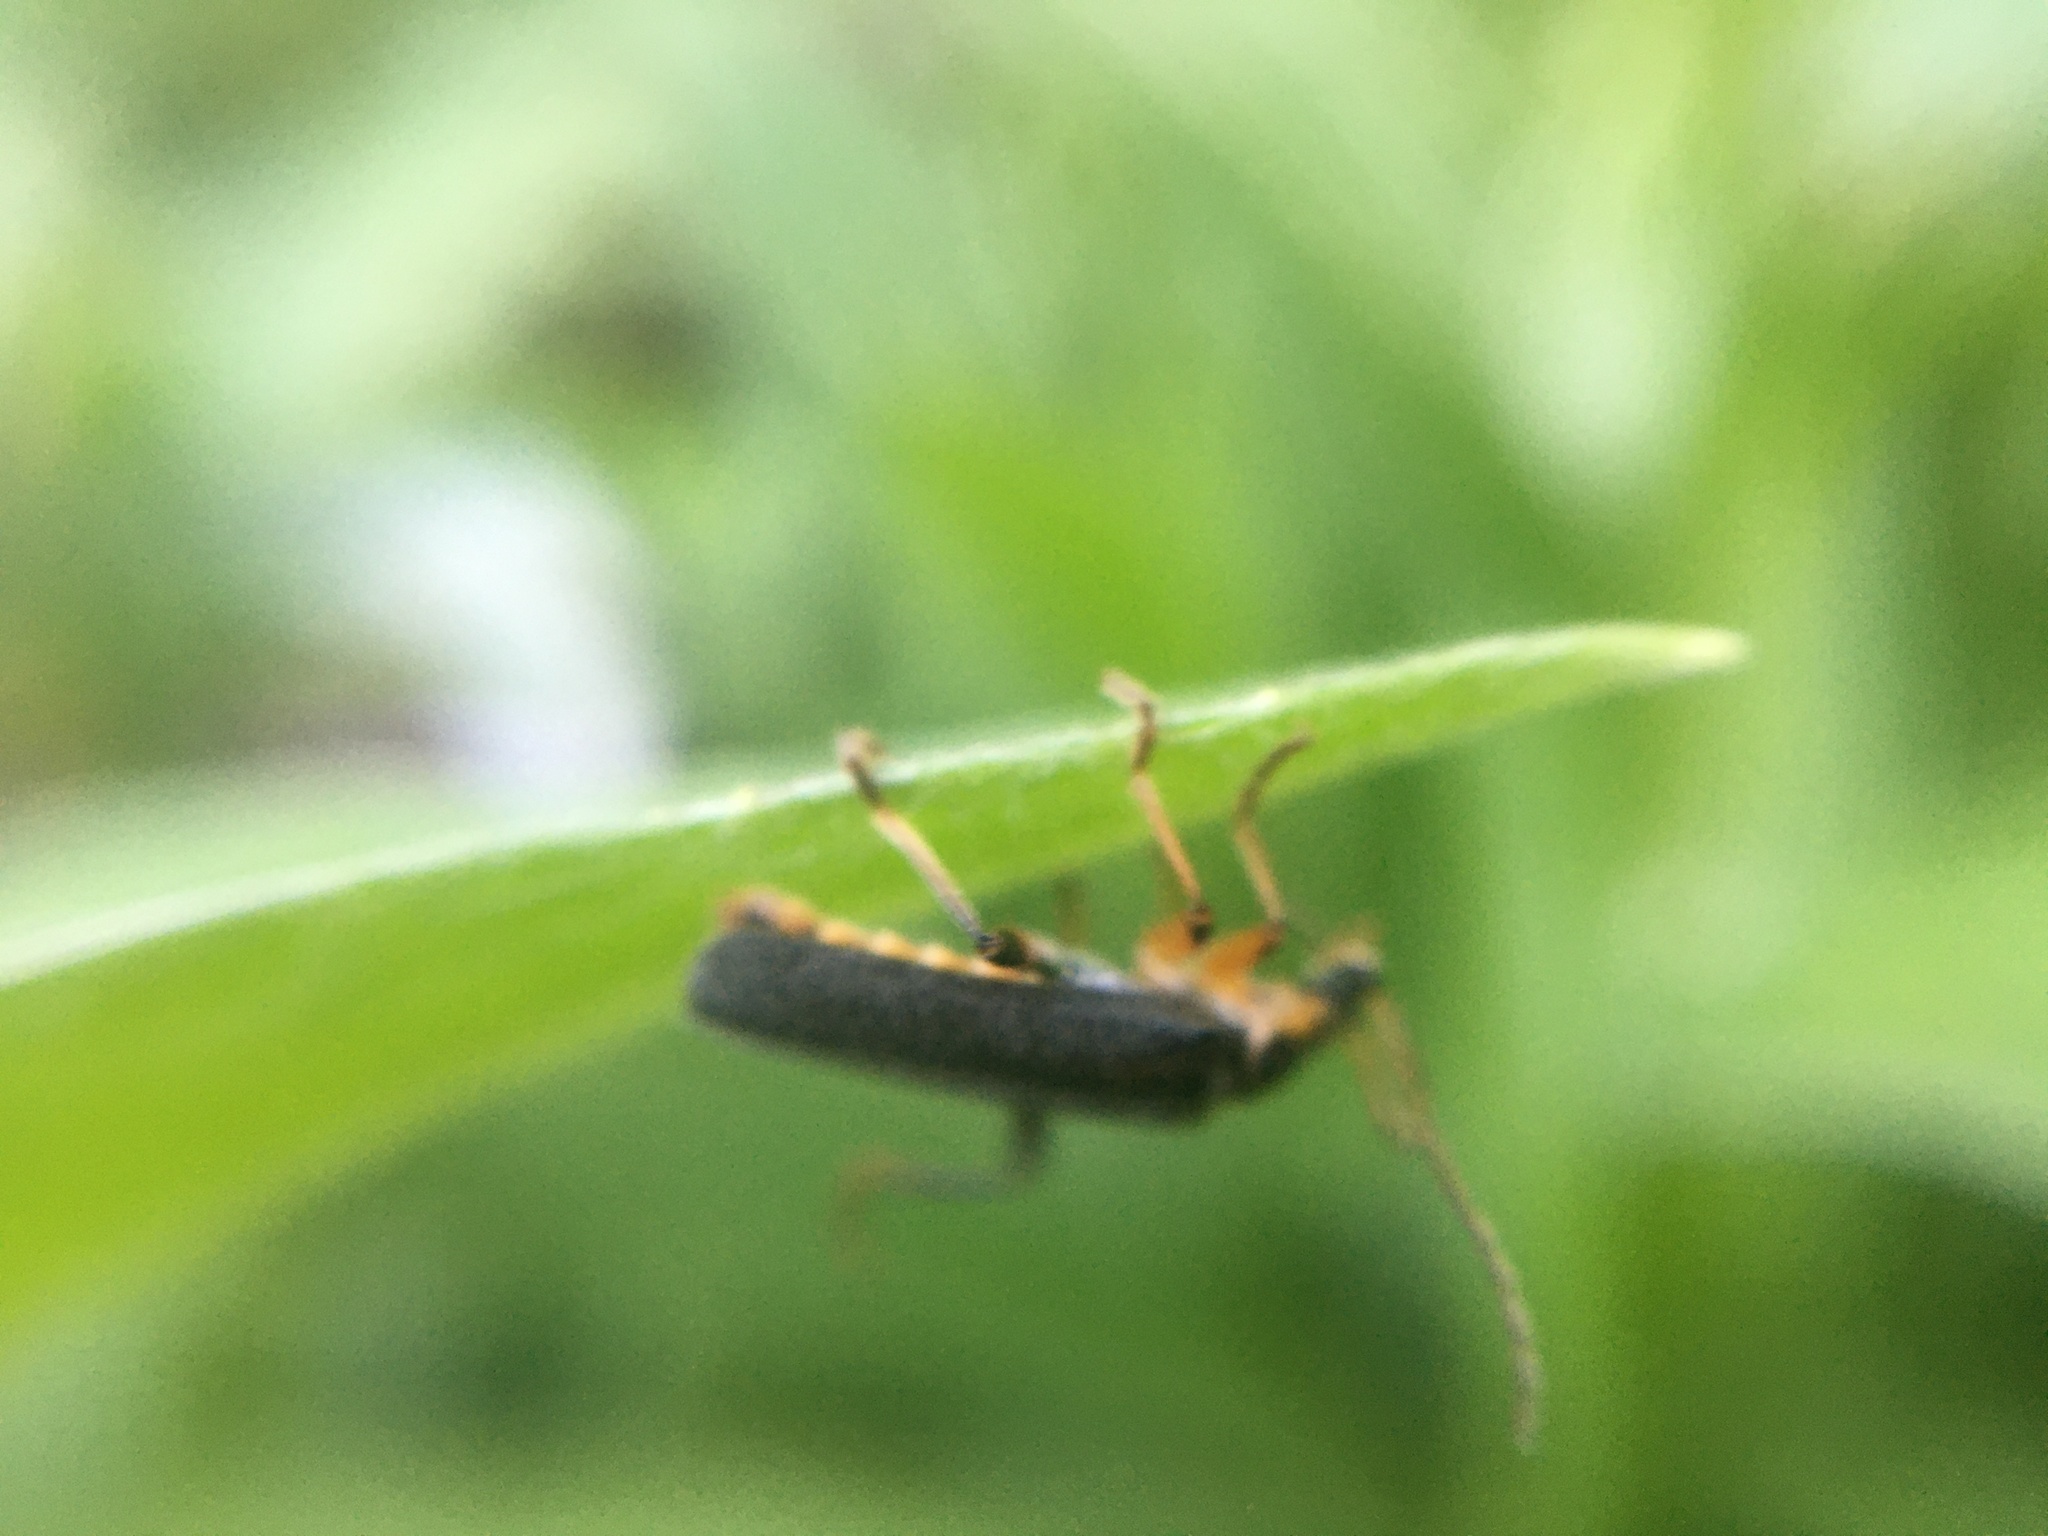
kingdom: Animalia
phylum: Arthropoda
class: Insecta
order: Coleoptera
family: Cantharidae
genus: Cantharis
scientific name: Cantharis nigricans
